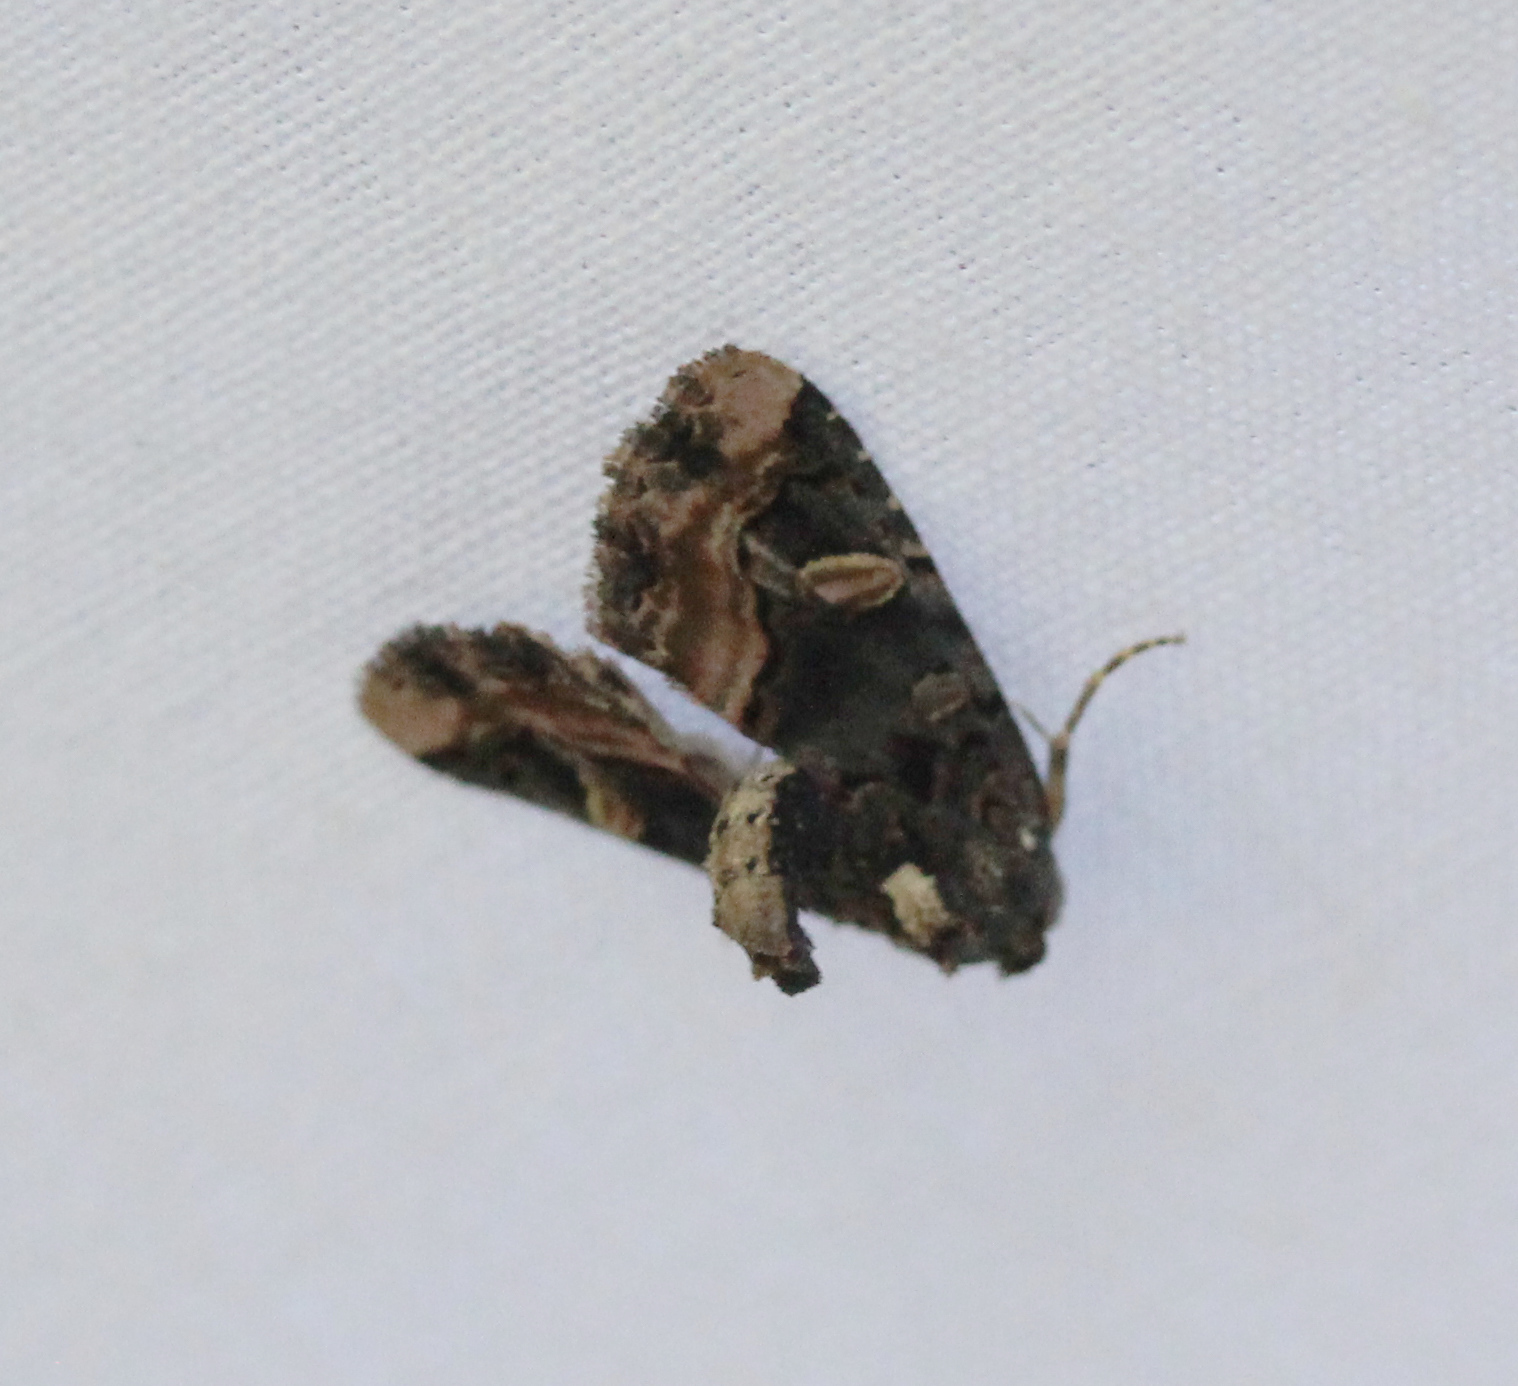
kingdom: Animalia
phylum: Arthropoda
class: Insecta
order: Lepidoptera
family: Noctuidae
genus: Homophoberia
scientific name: Homophoberia apicosa
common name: Black wedge-spot
